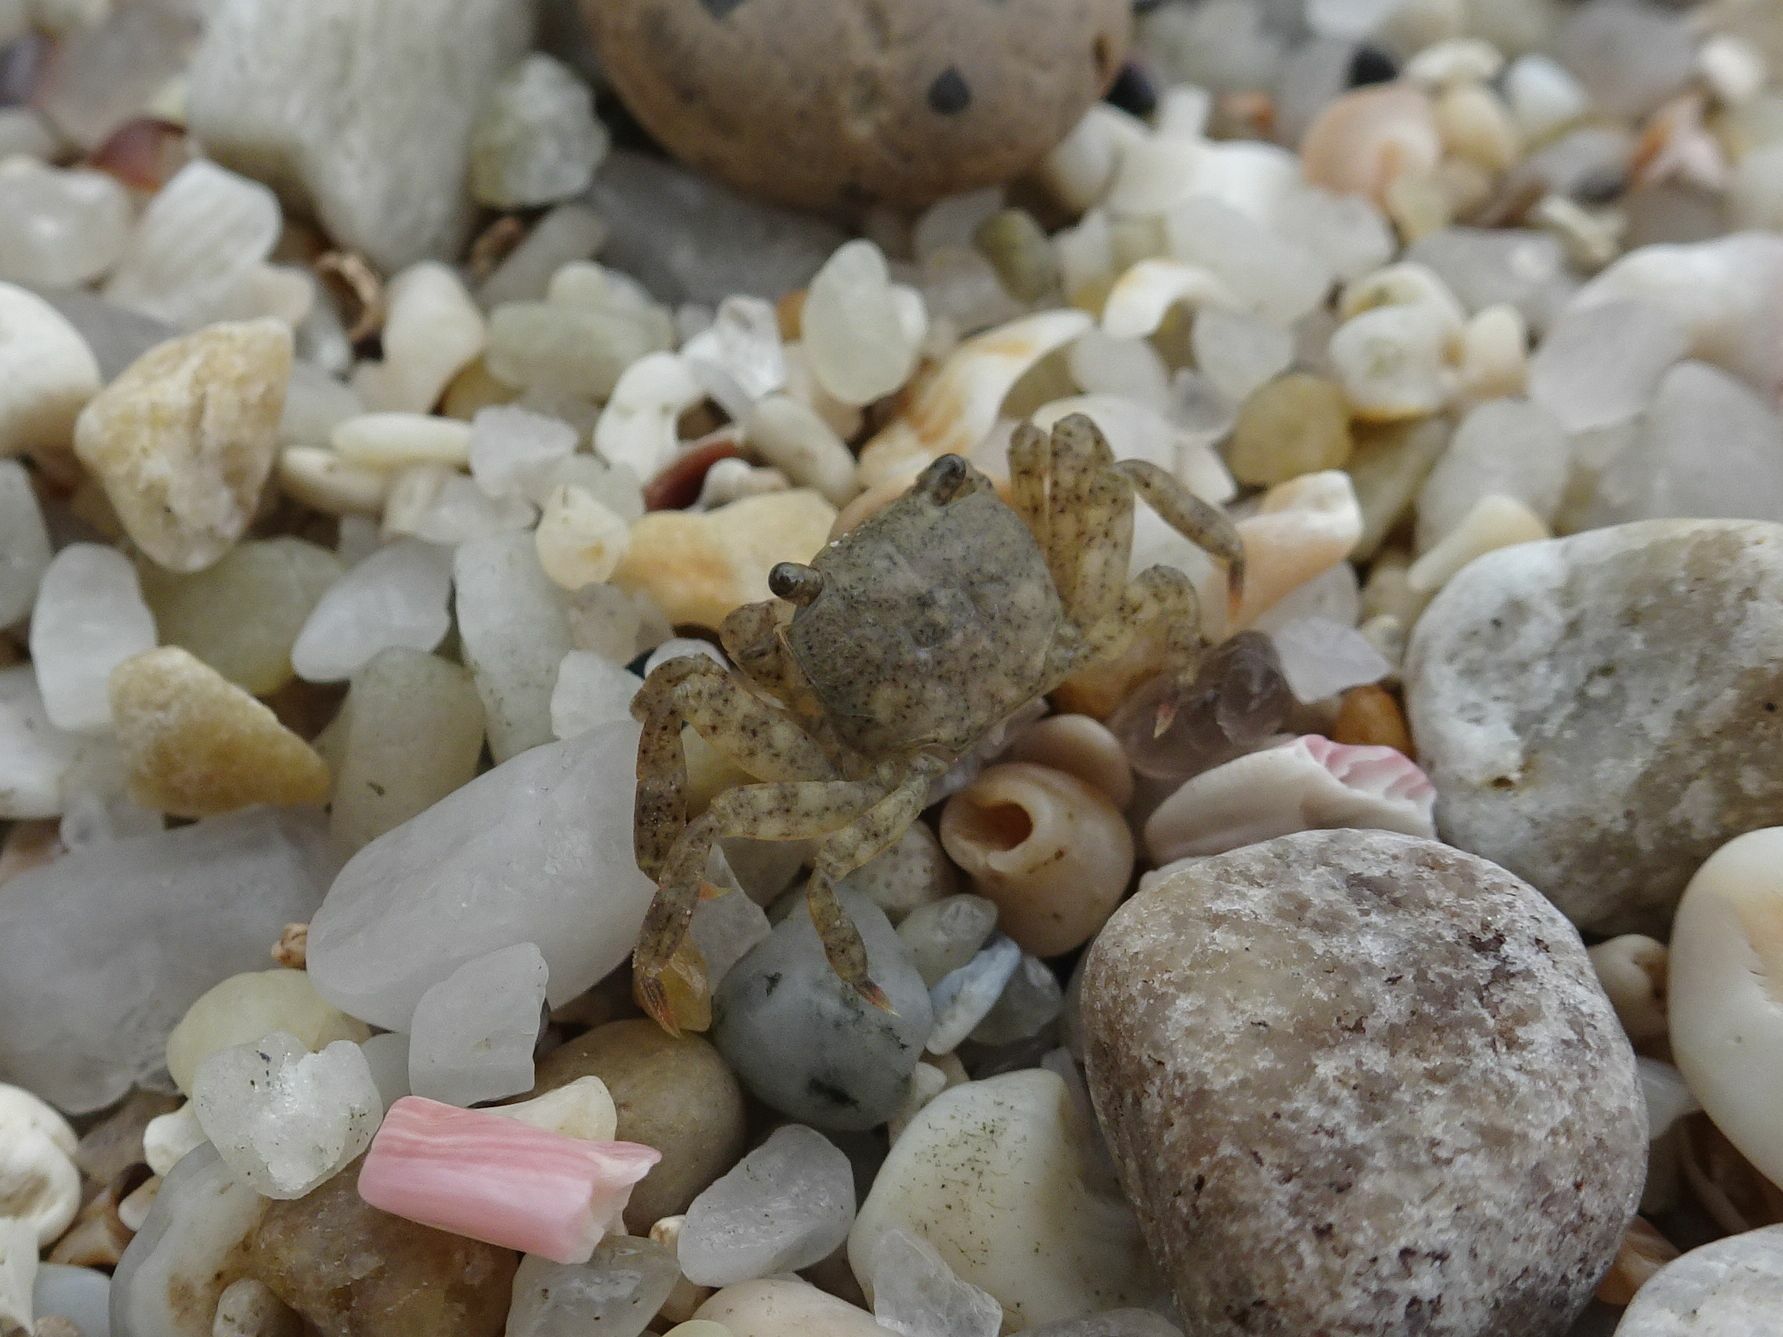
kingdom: Animalia
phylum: Arthropoda
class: Malacostraca
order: Decapoda
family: Grapsidae
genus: Planes
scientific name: Planes minutus
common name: Gulf weed crab
